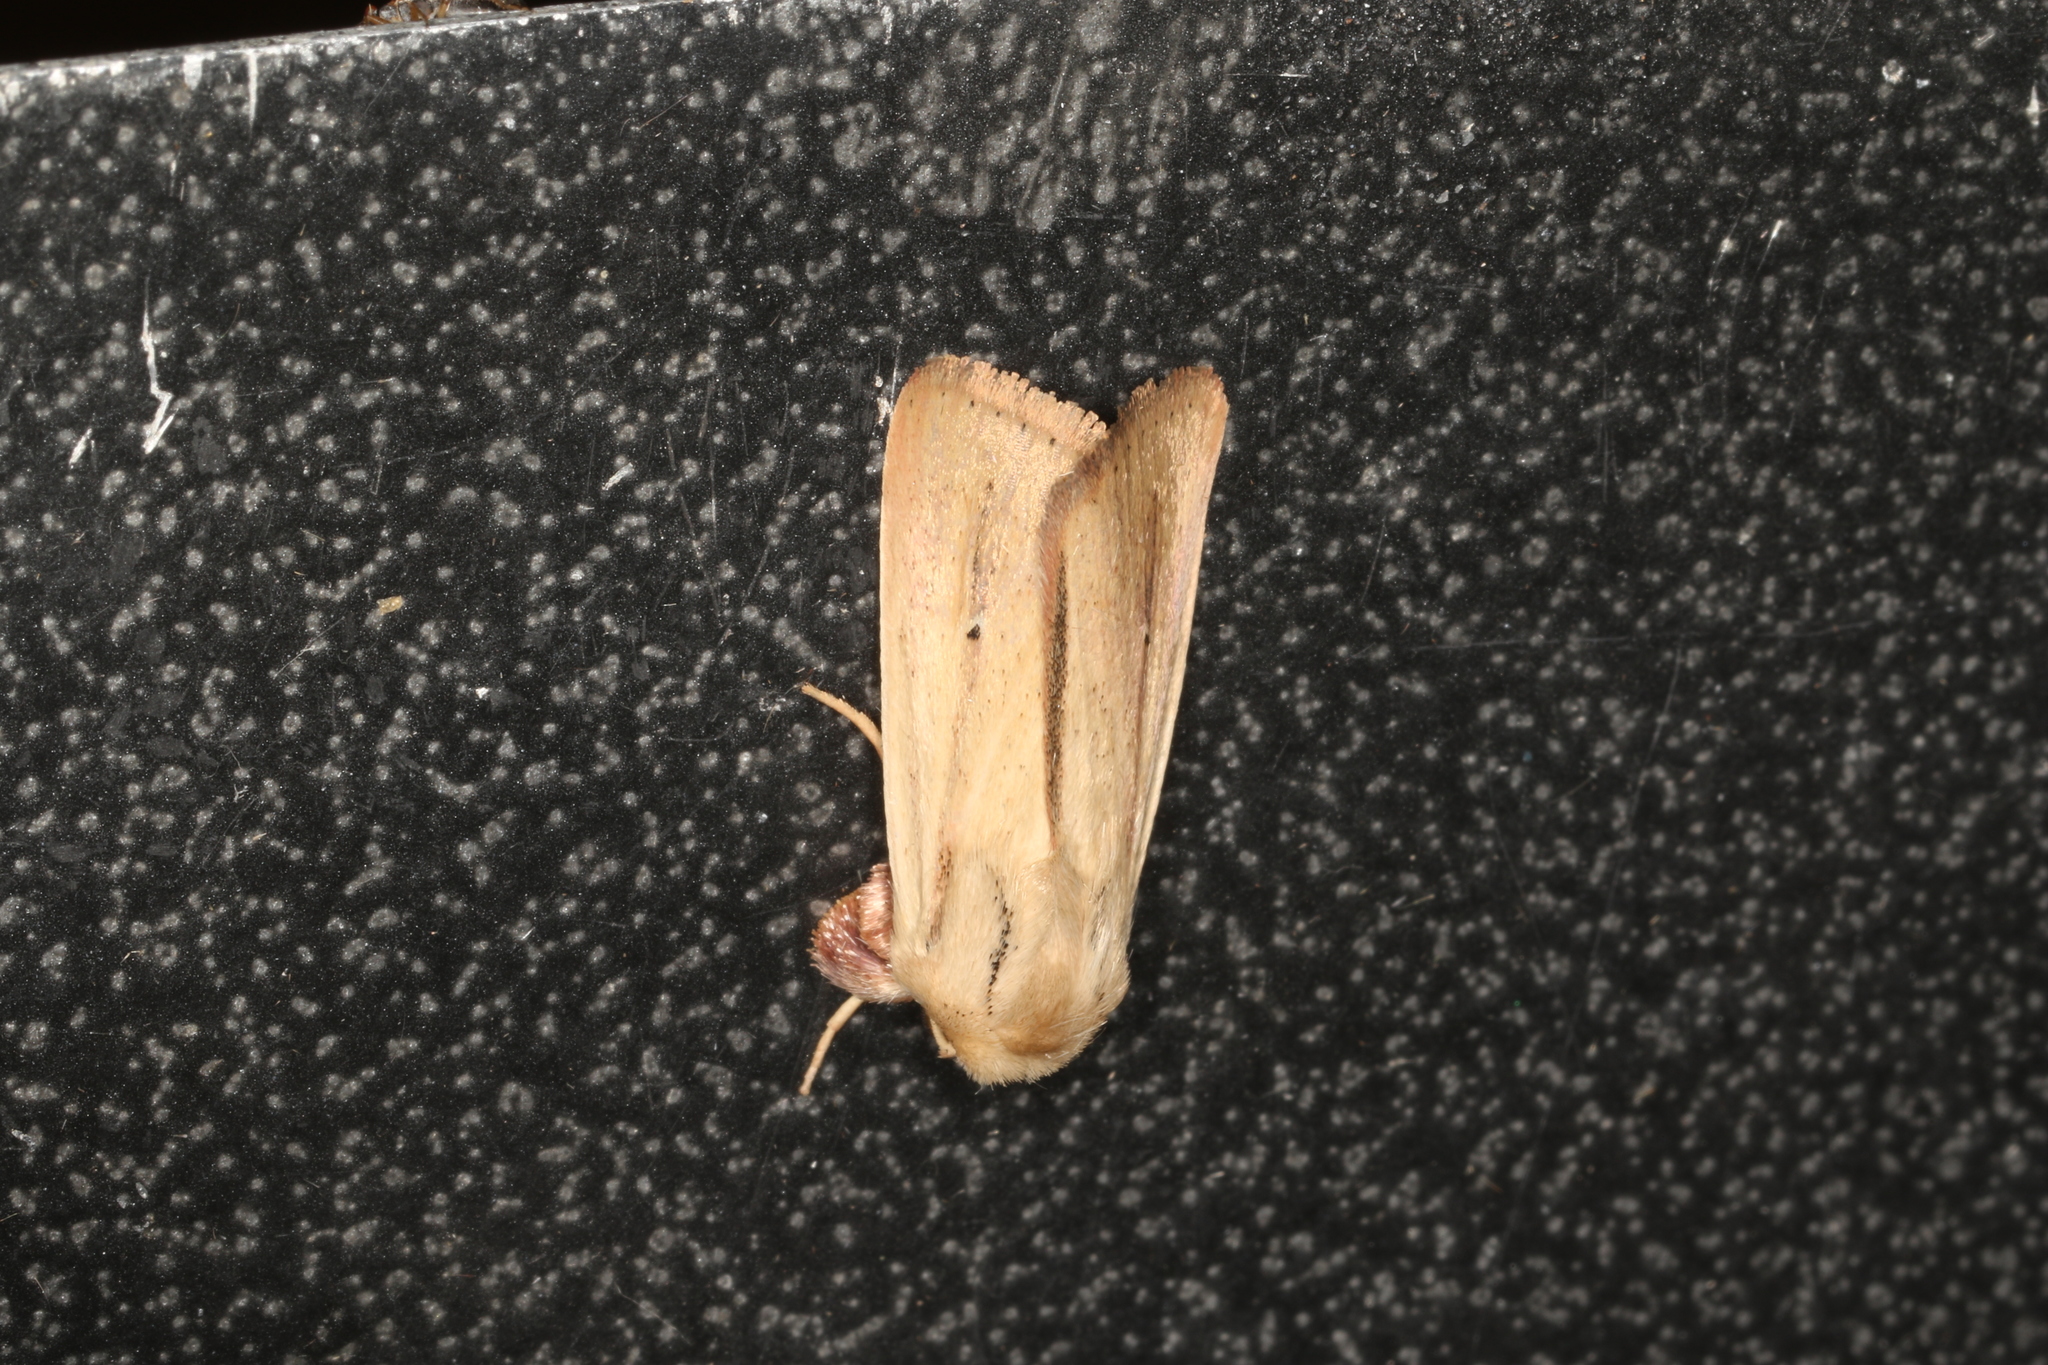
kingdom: Animalia
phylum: Arthropoda
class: Insecta
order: Lepidoptera
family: Noctuidae
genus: Leucania
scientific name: Leucania diatrecta
